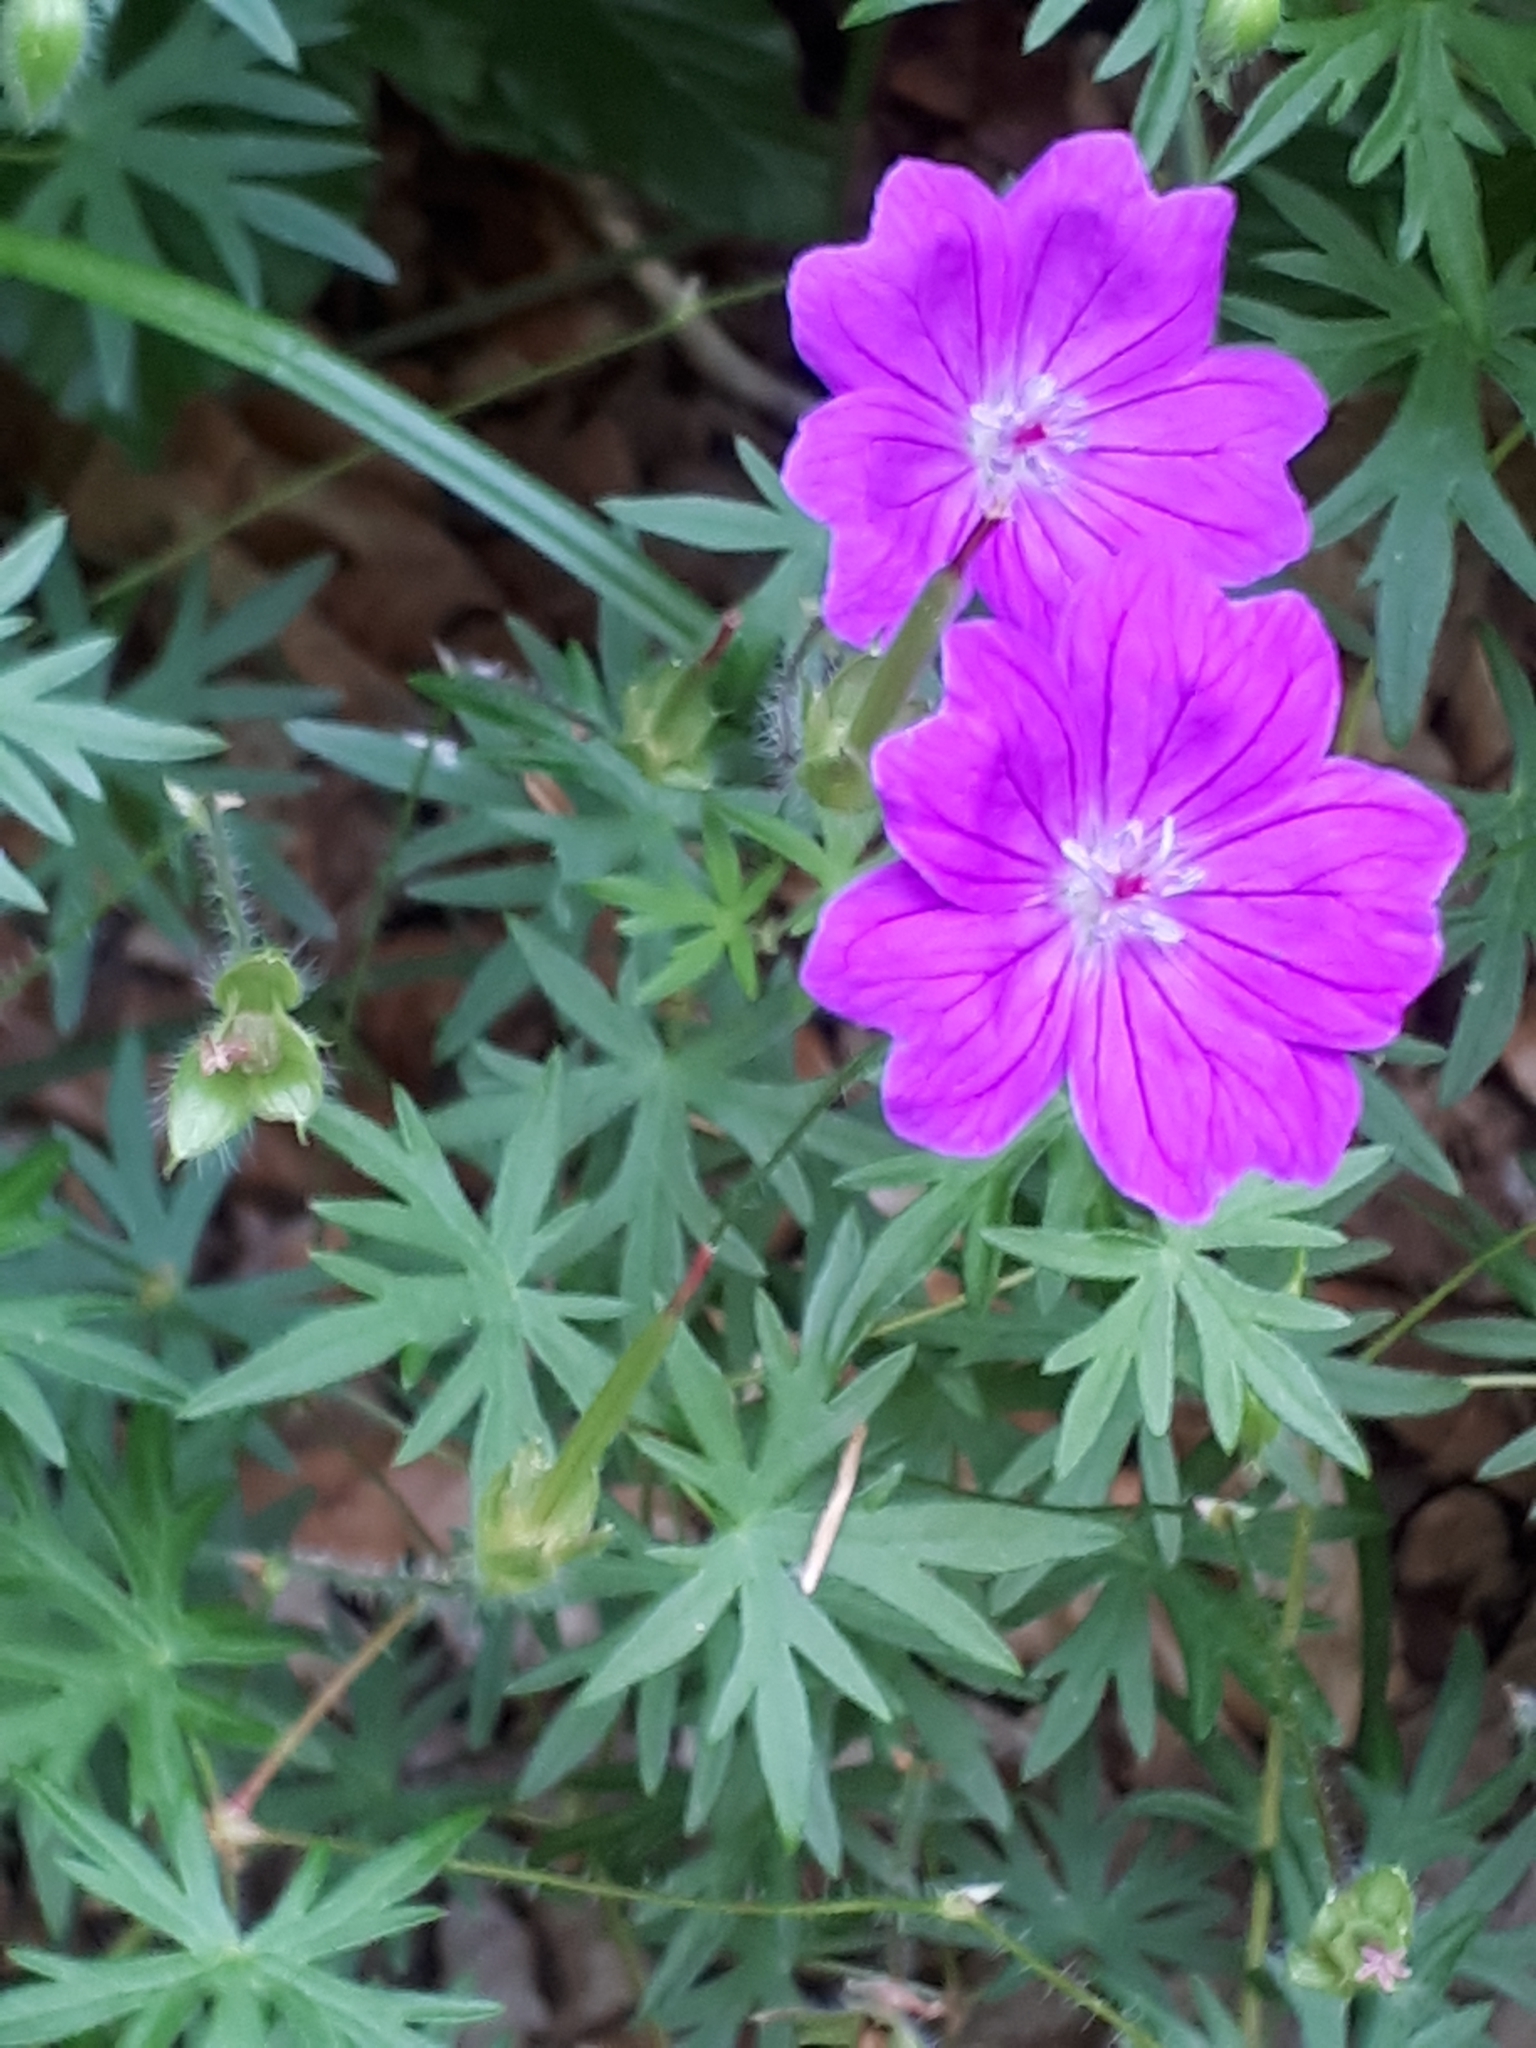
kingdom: Plantae
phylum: Tracheophyta
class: Magnoliopsida
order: Geraniales
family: Geraniaceae
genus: Geranium
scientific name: Geranium sanguineum
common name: Bloody crane's-bill
